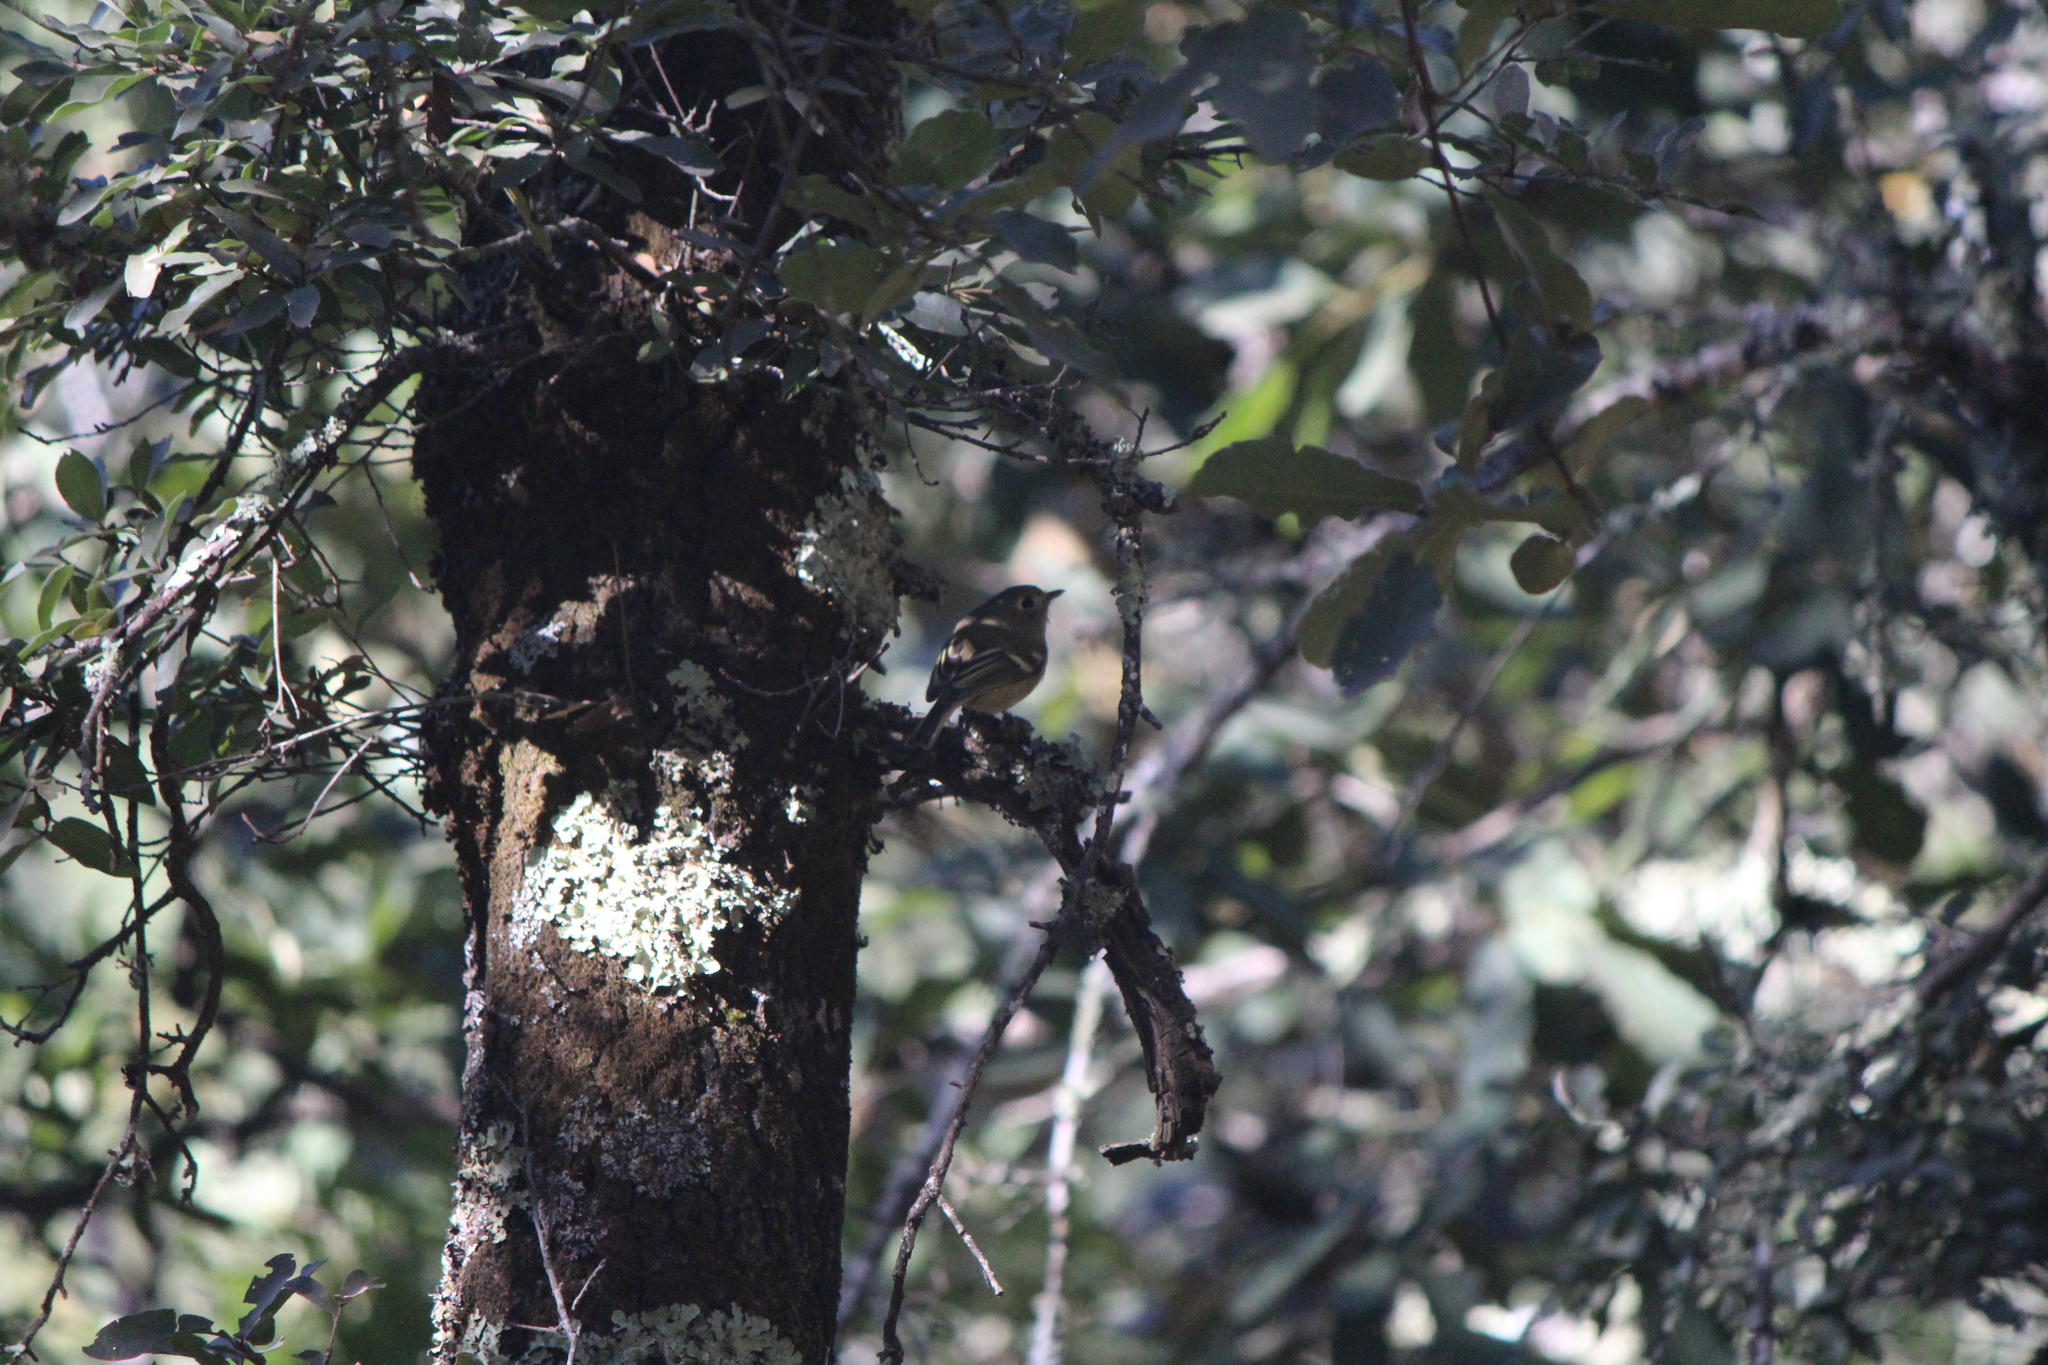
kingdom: Animalia
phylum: Chordata
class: Aves
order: Passeriformes
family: Vireonidae
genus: Vireo
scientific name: Vireo huttoni
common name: Hutton's vireo
